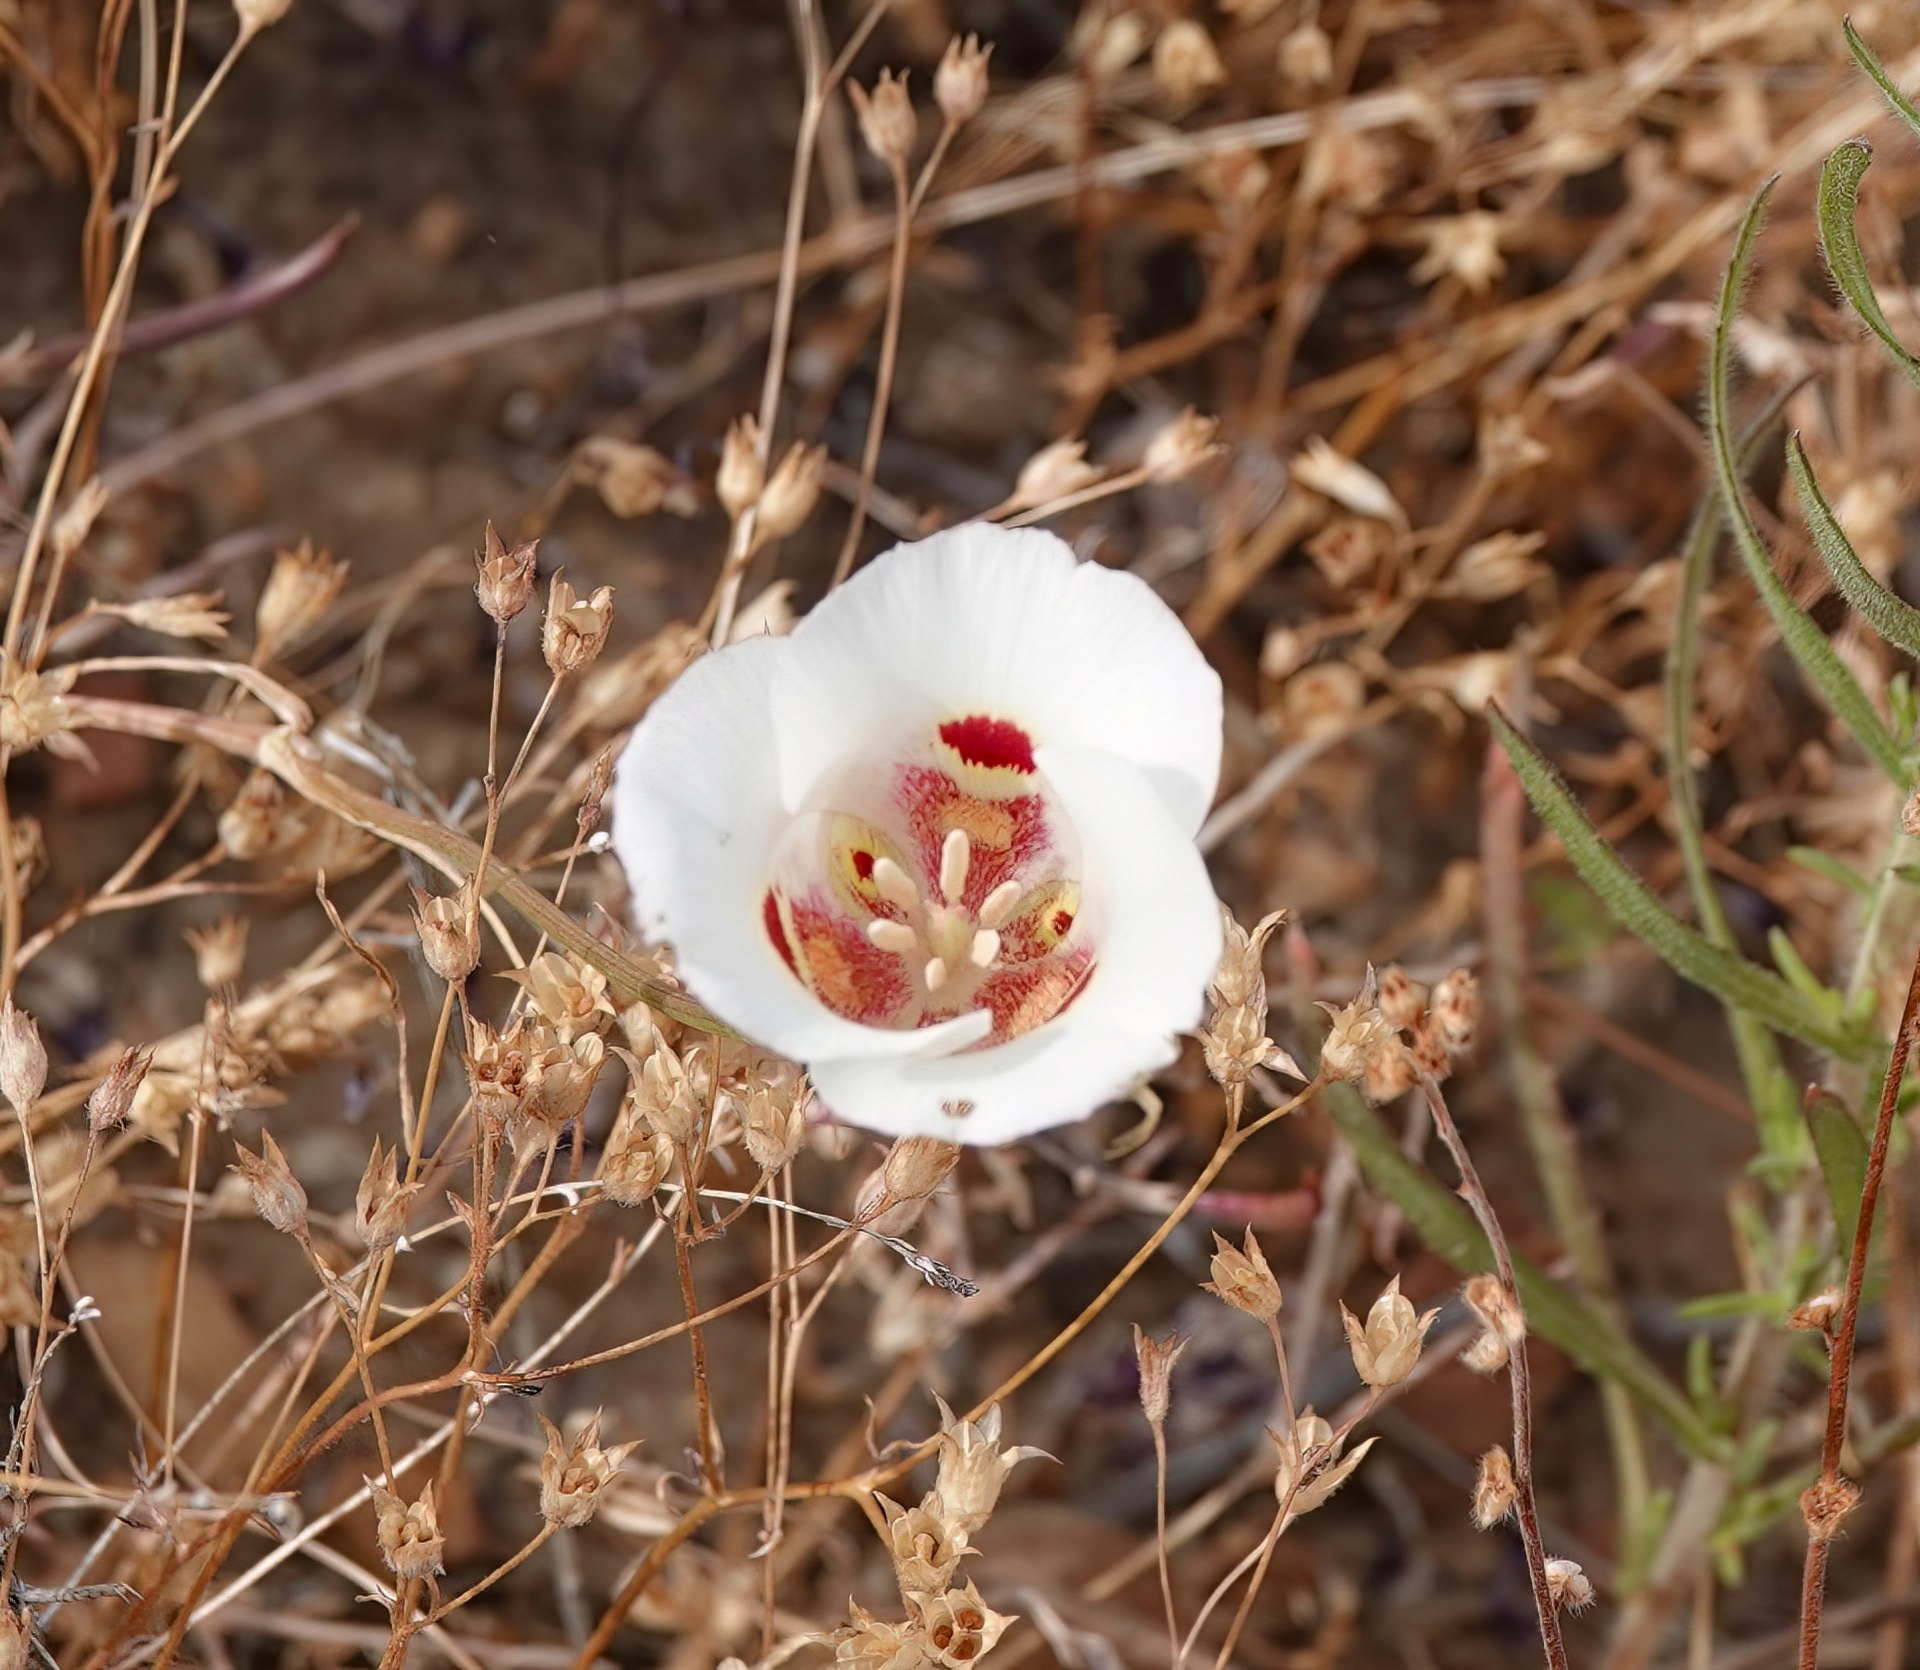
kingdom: Plantae
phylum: Tracheophyta
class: Liliopsida
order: Liliales
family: Liliaceae
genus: Calochortus
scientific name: Calochortus venustus
